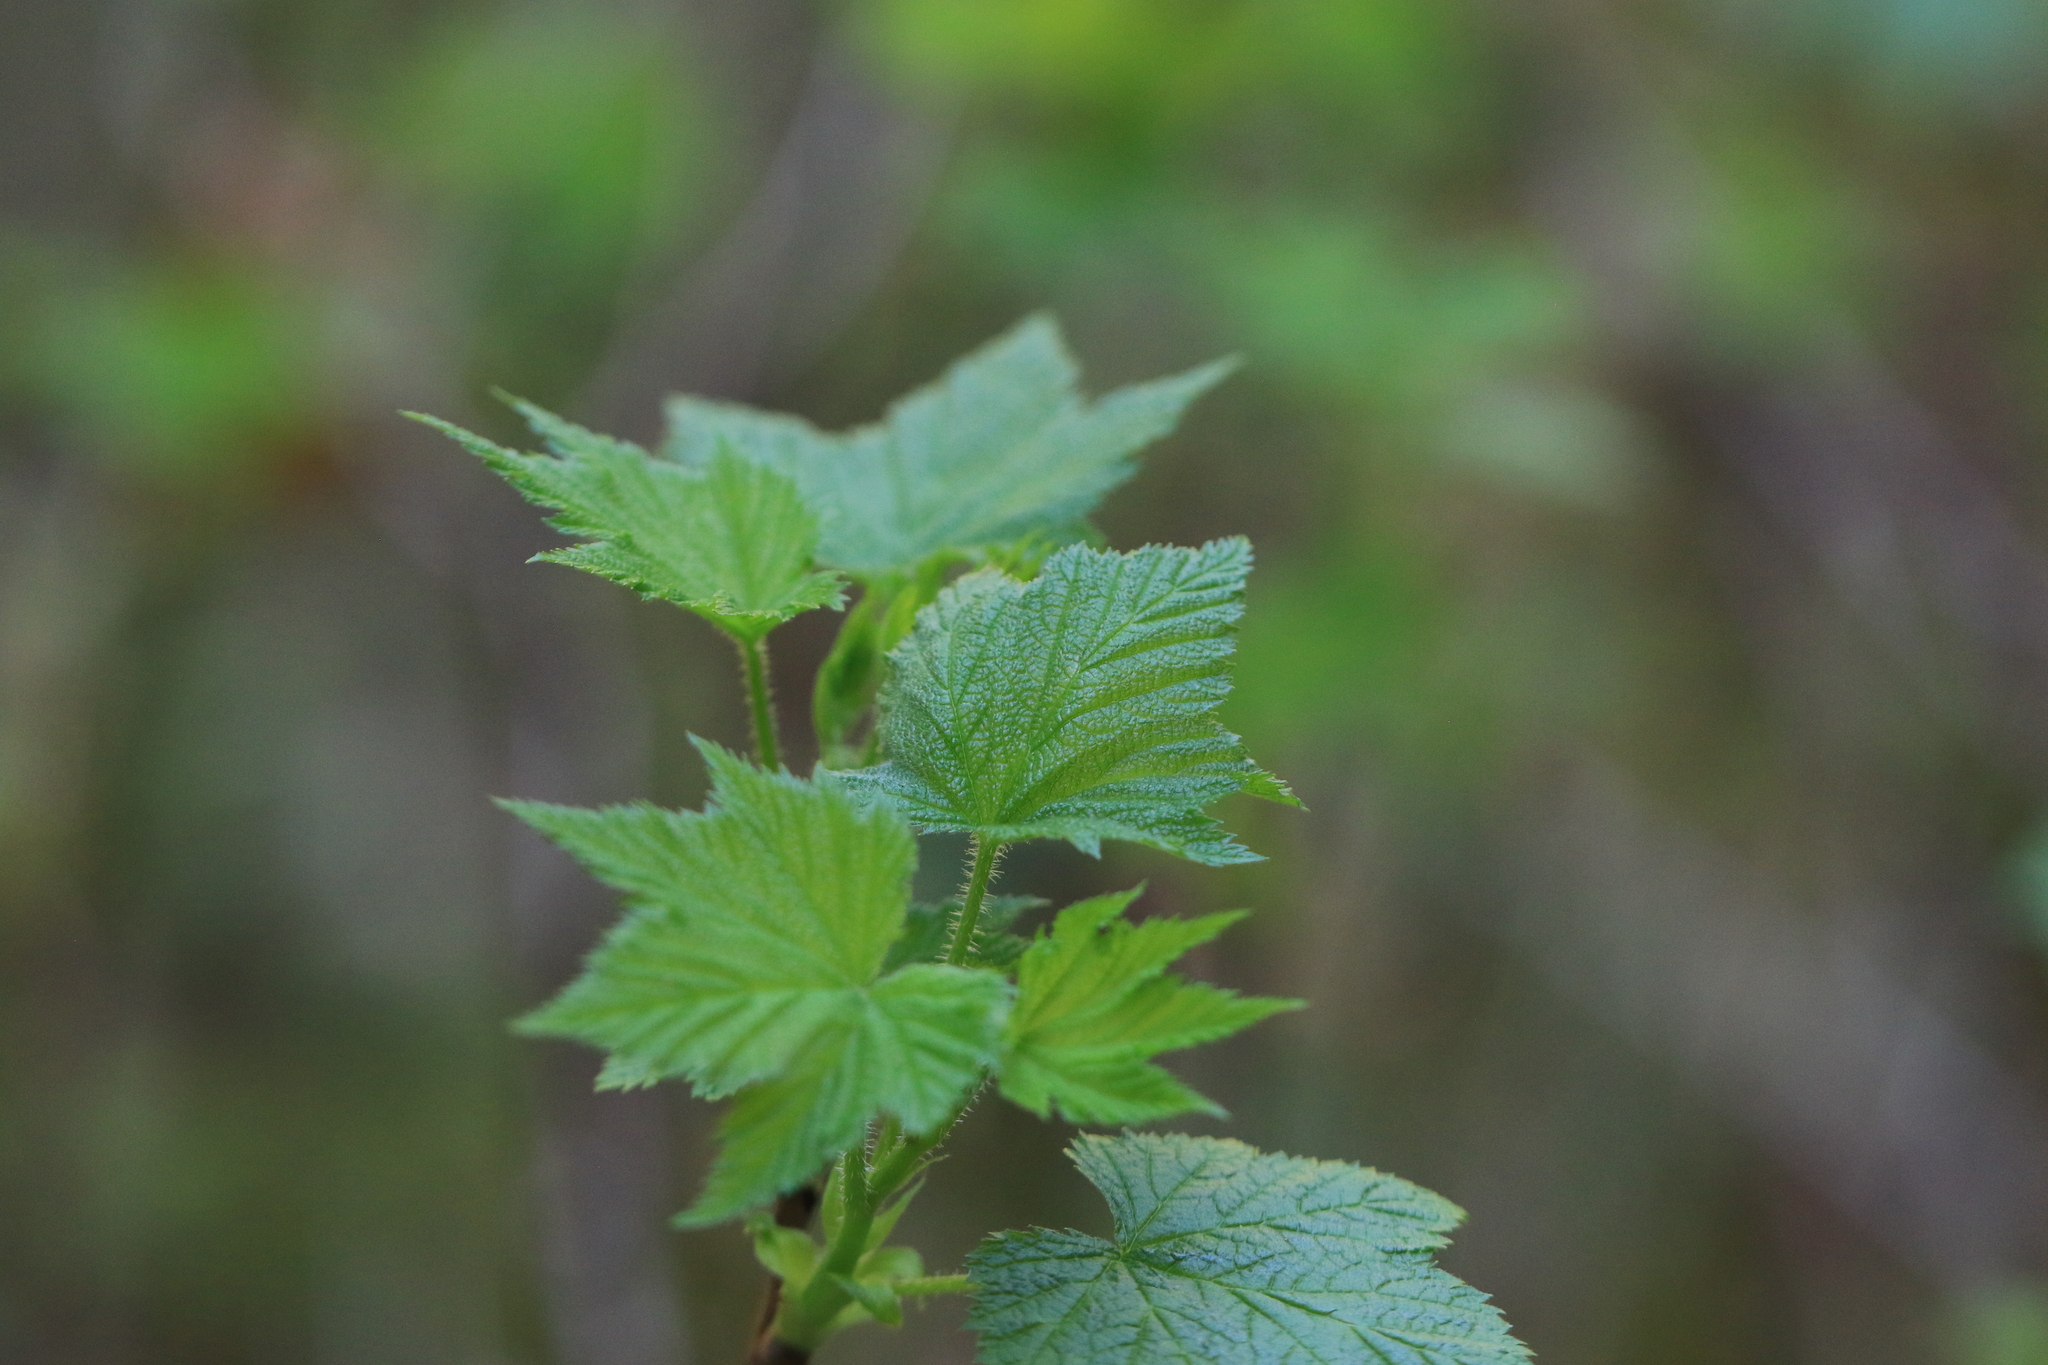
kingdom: Plantae
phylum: Tracheophyta
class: Magnoliopsida
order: Rosales
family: Rosaceae
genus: Rubus
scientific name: Rubus parviflorus
